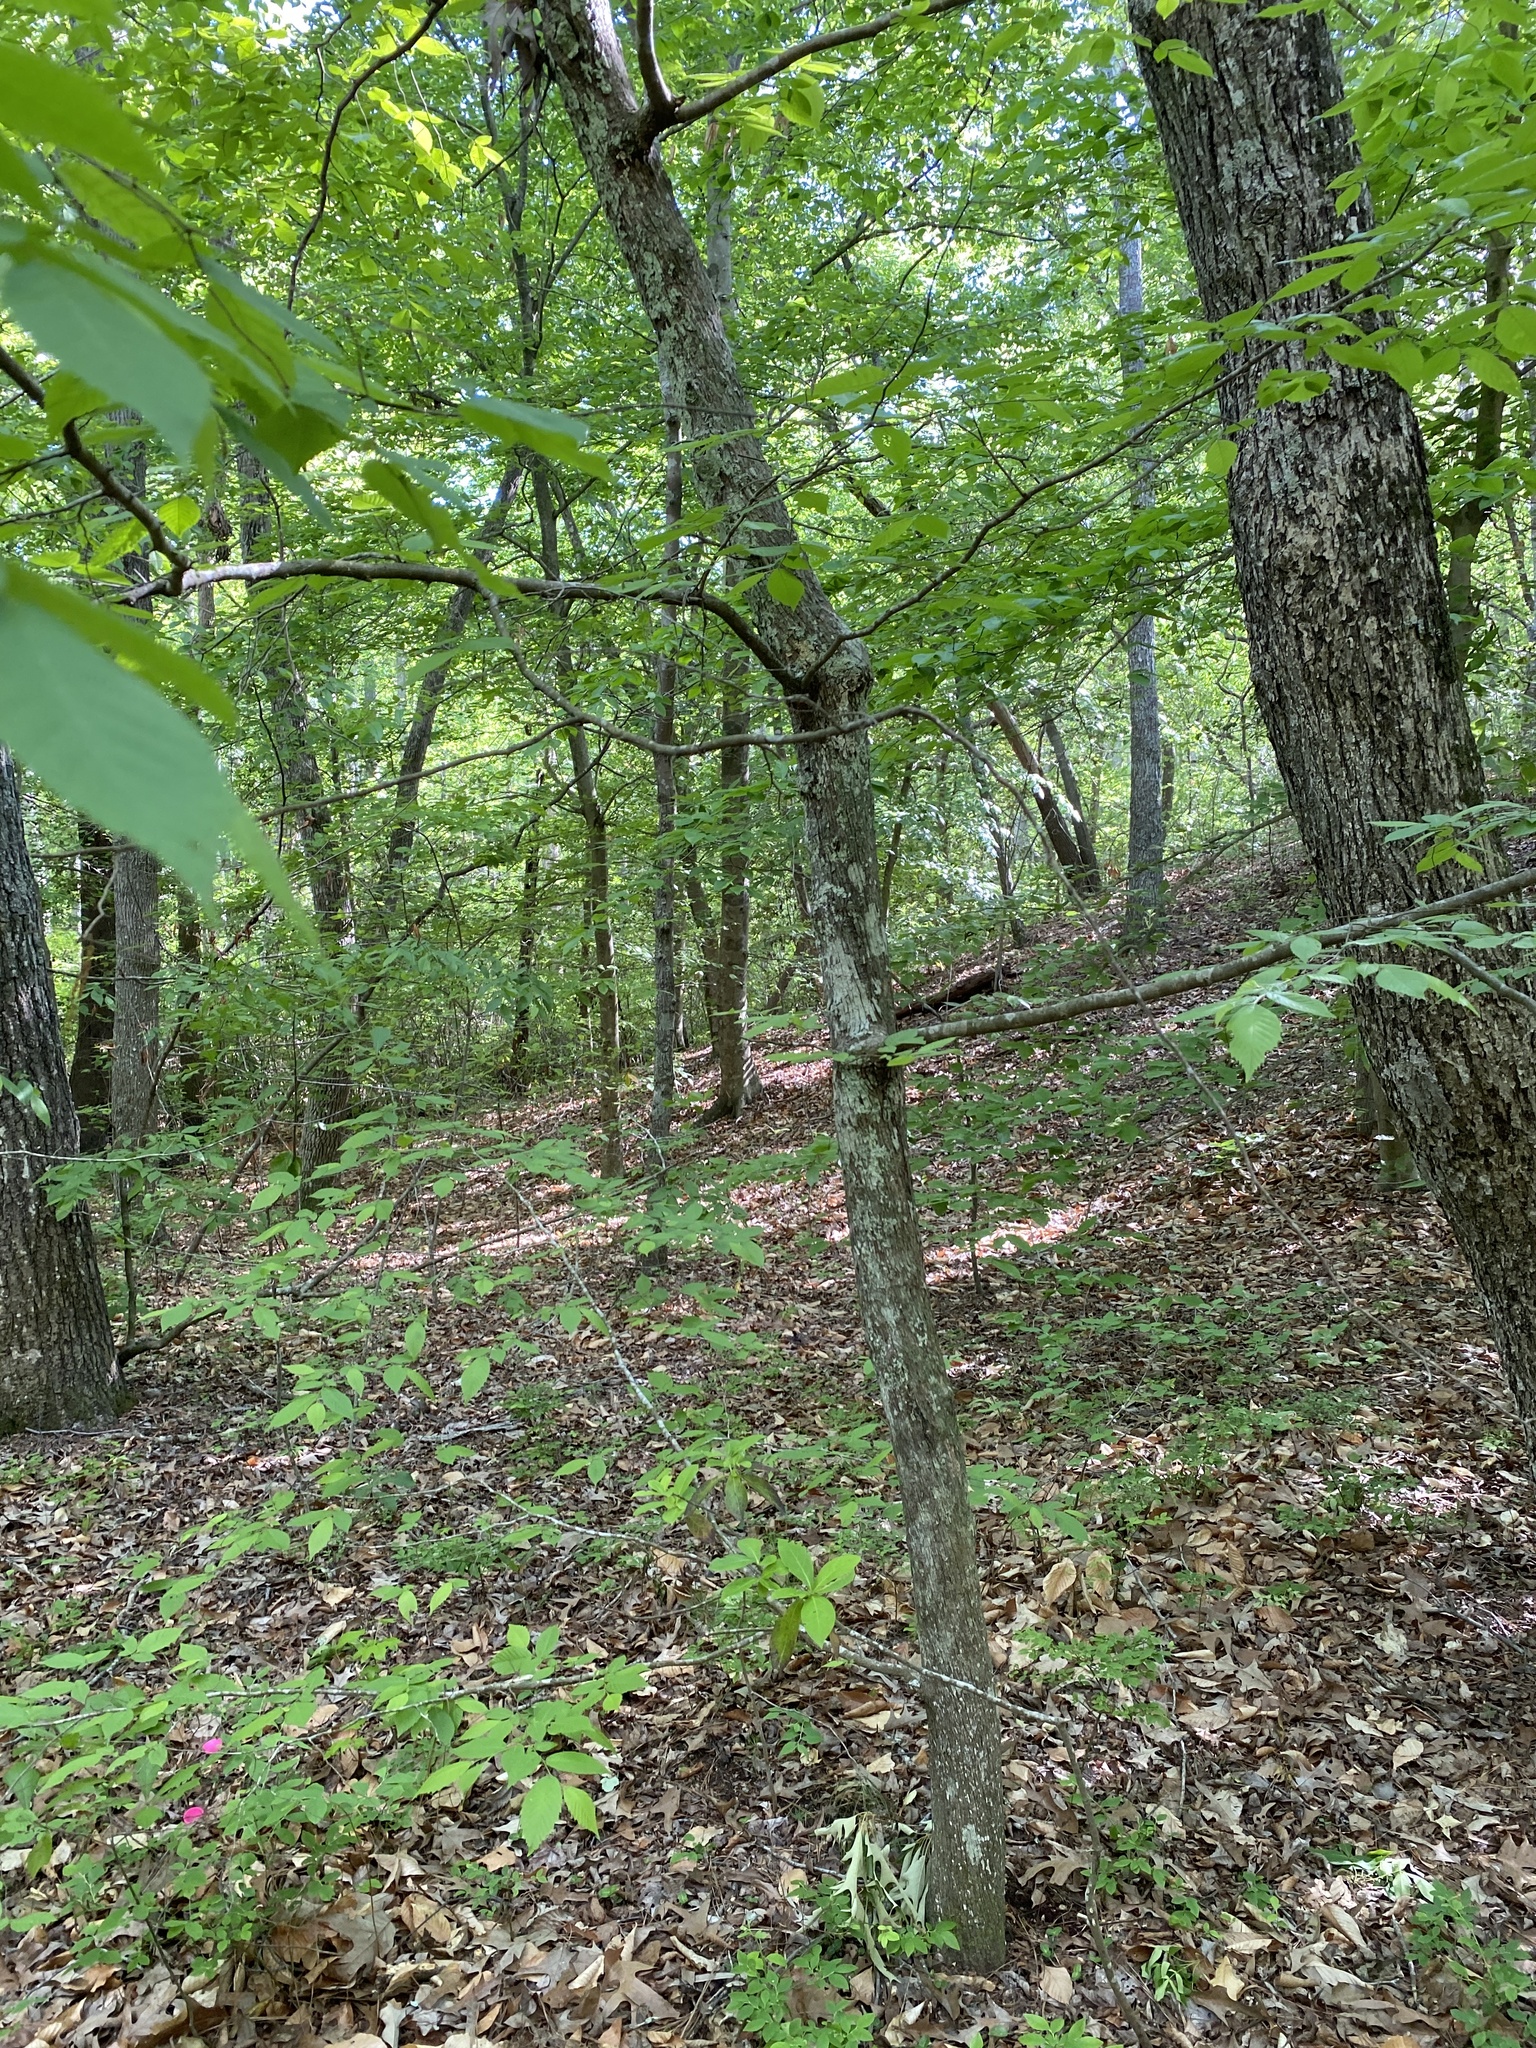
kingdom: Plantae
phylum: Tracheophyta
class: Magnoliopsida
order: Fagales
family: Betulaceae
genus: Ostrya
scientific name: Ostrya virginiana
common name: Ironwood
